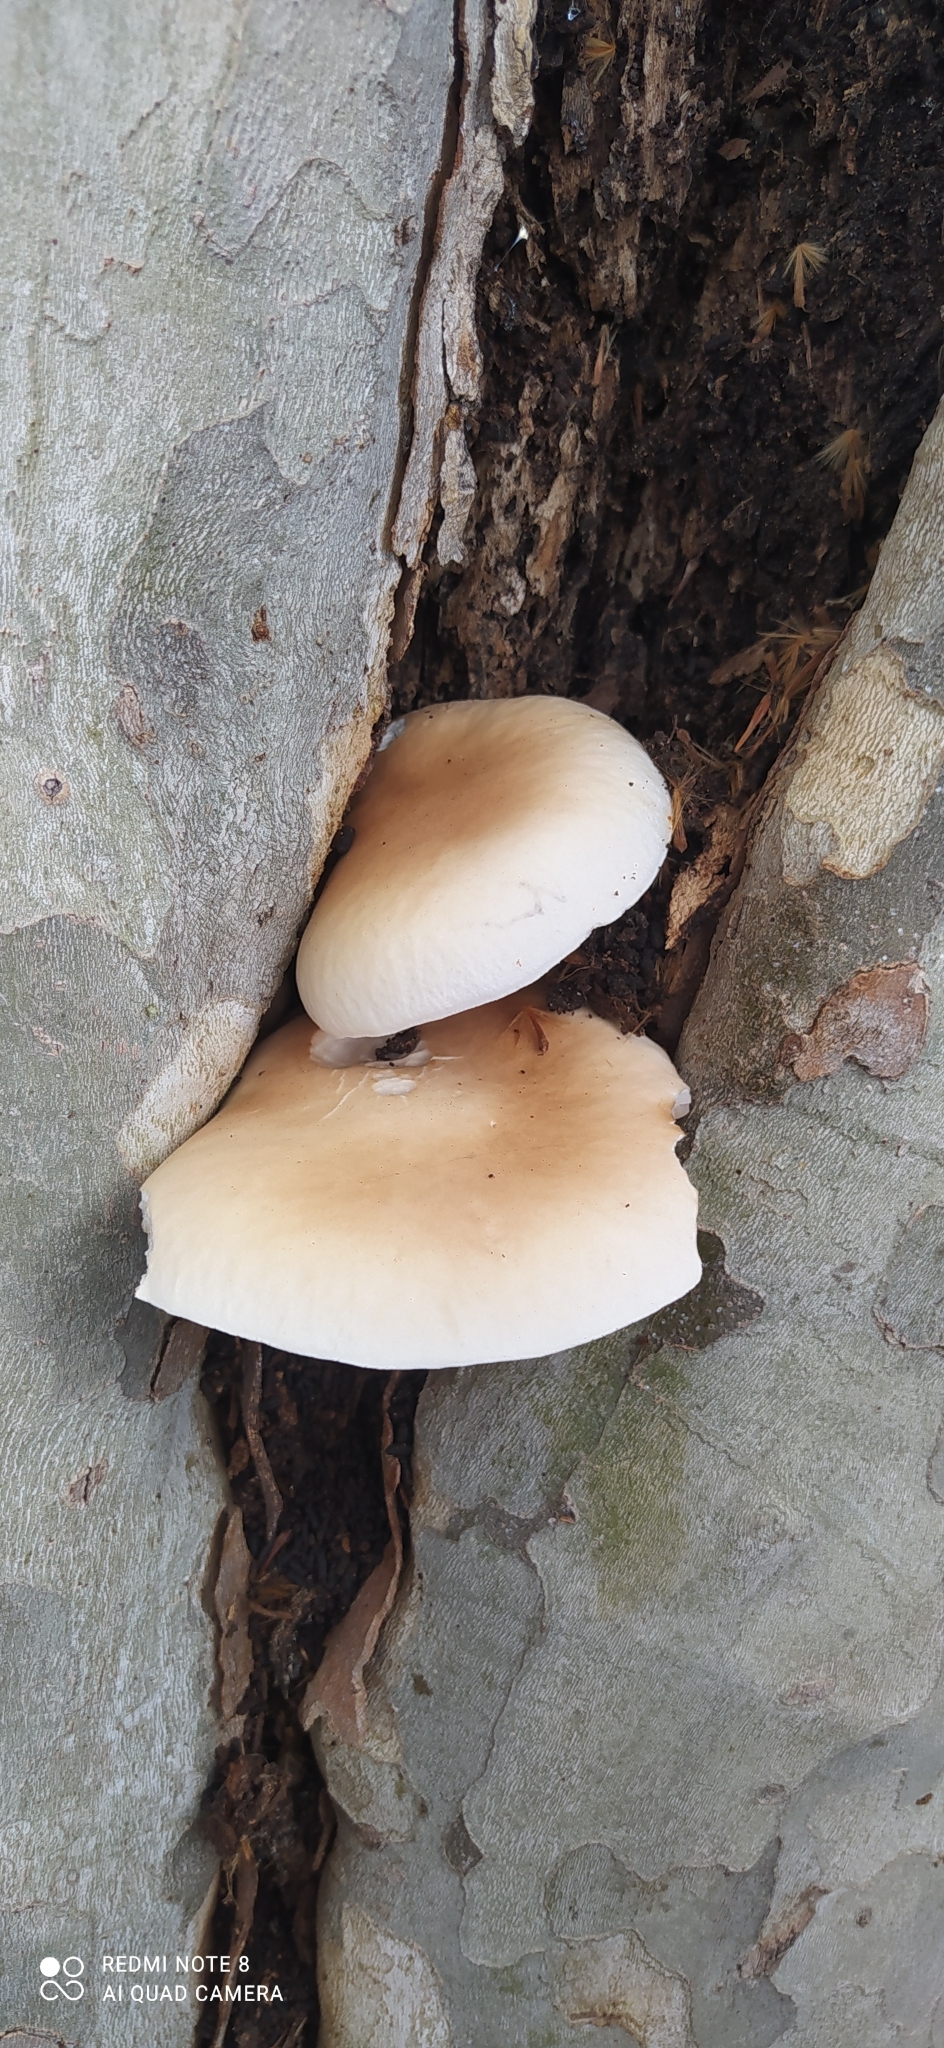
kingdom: Fungi
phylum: Basidiomycota
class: Agaricomycetes
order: Agaricales
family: Tubariaceae
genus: Cyclocybe
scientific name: Cyclocybe cylindracea
